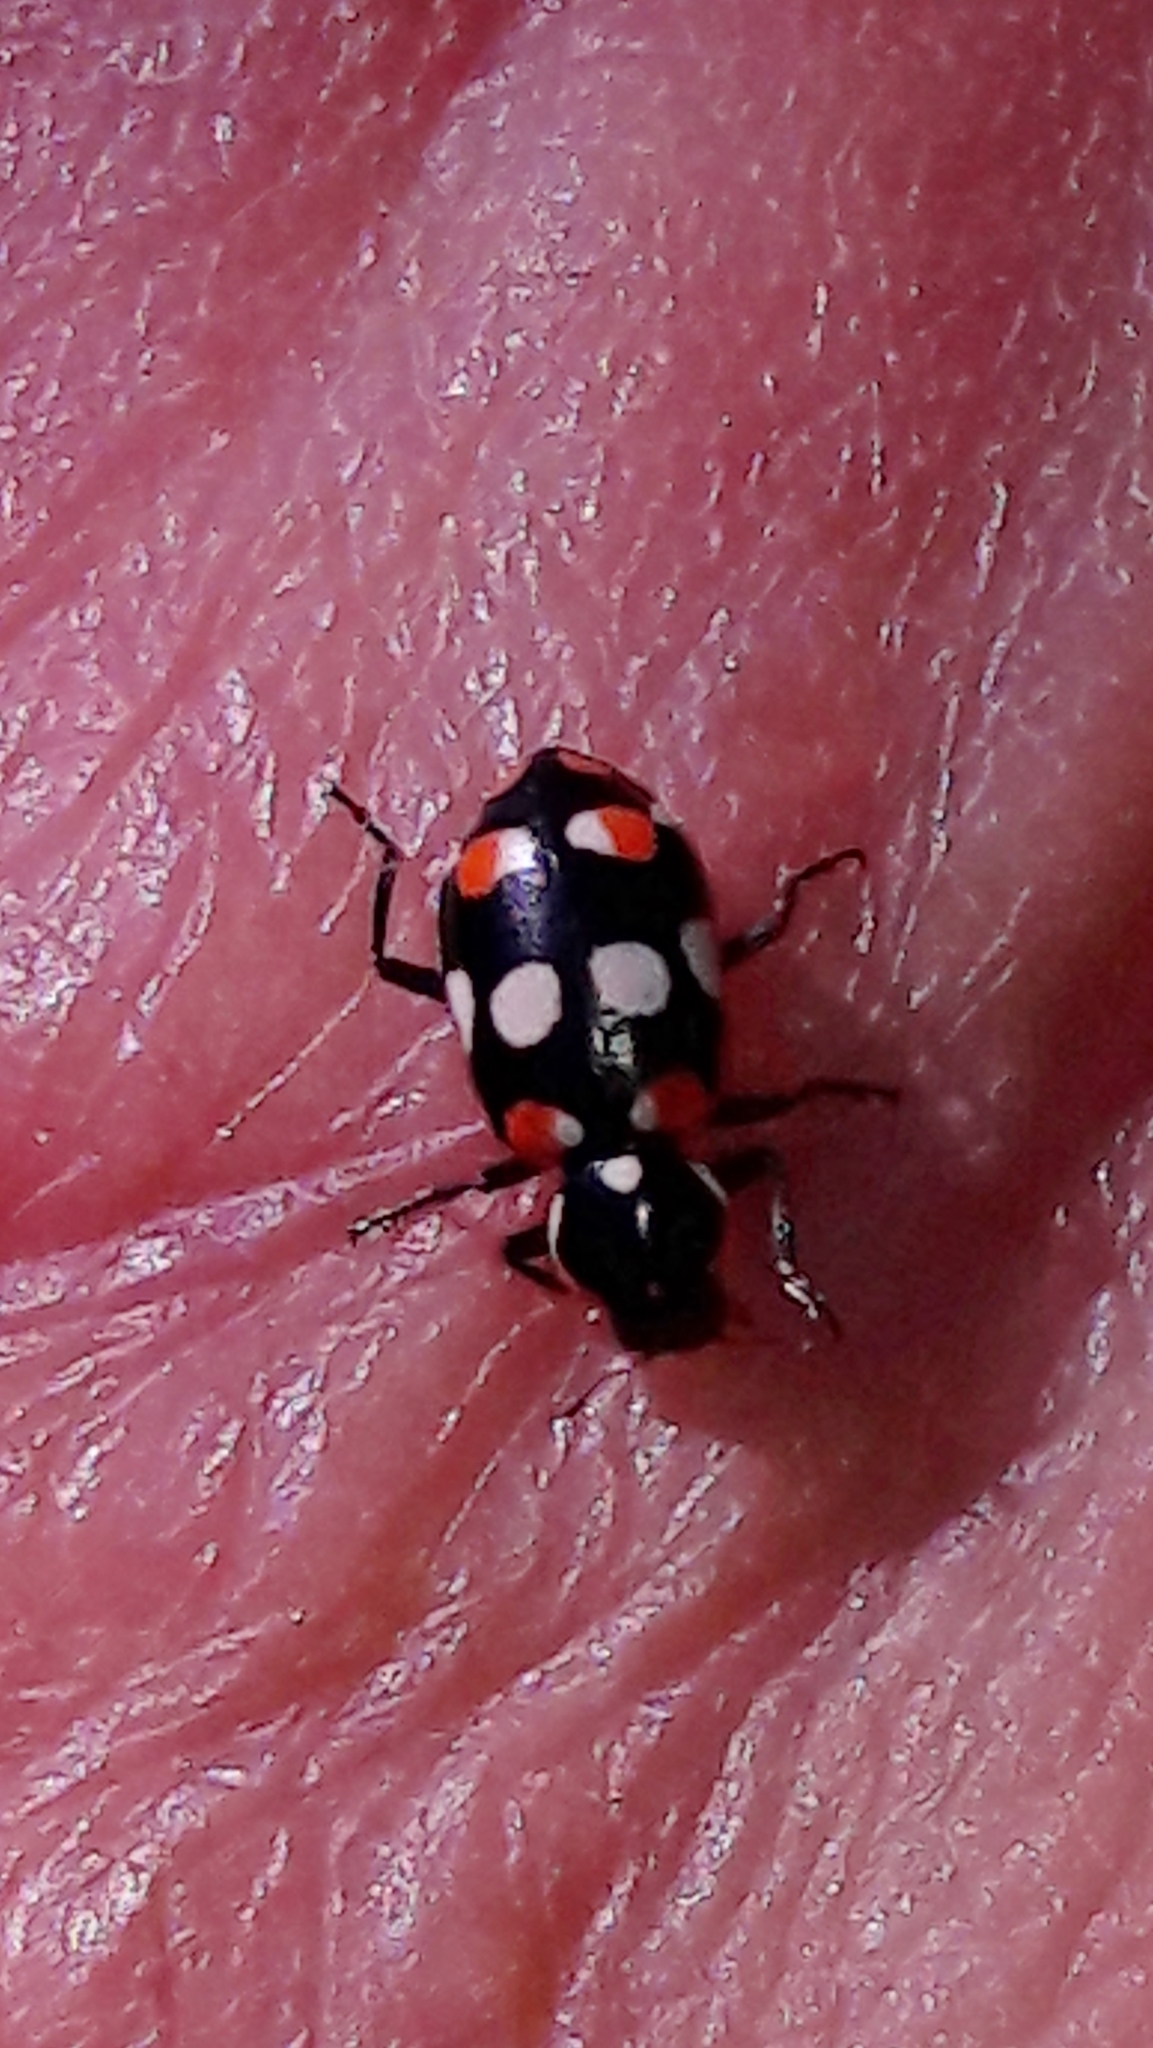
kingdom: Animalia
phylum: Arthropoda
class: Insecta
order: Coleoptera
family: Coccinellidae
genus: Eriopis
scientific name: Eriopis connexa
